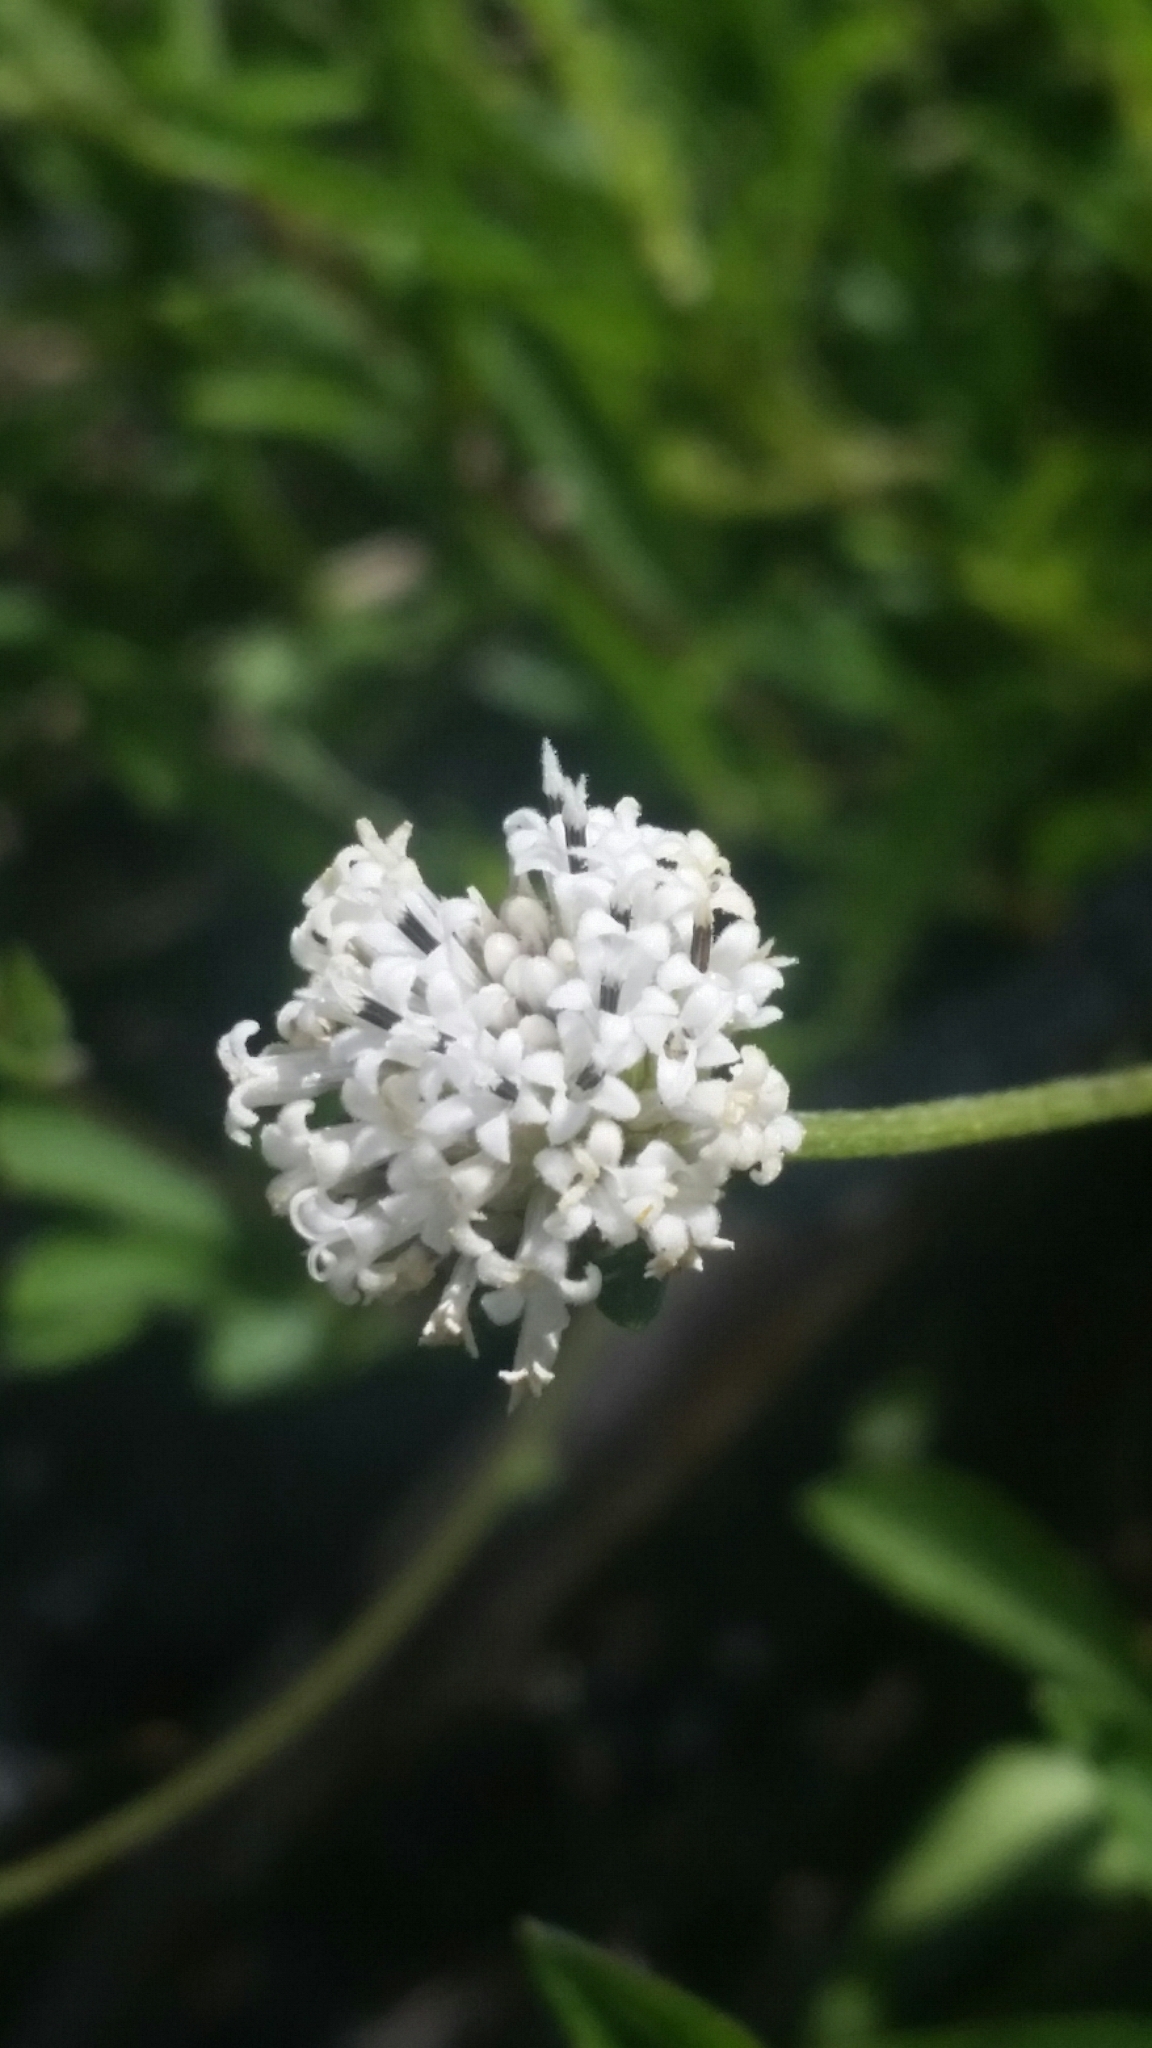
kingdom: Plantae
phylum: Tracheophyta
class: Magnoliopsida
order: Asterales
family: Asteraceae
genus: Melanthera
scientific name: Melanthera angustifolia
